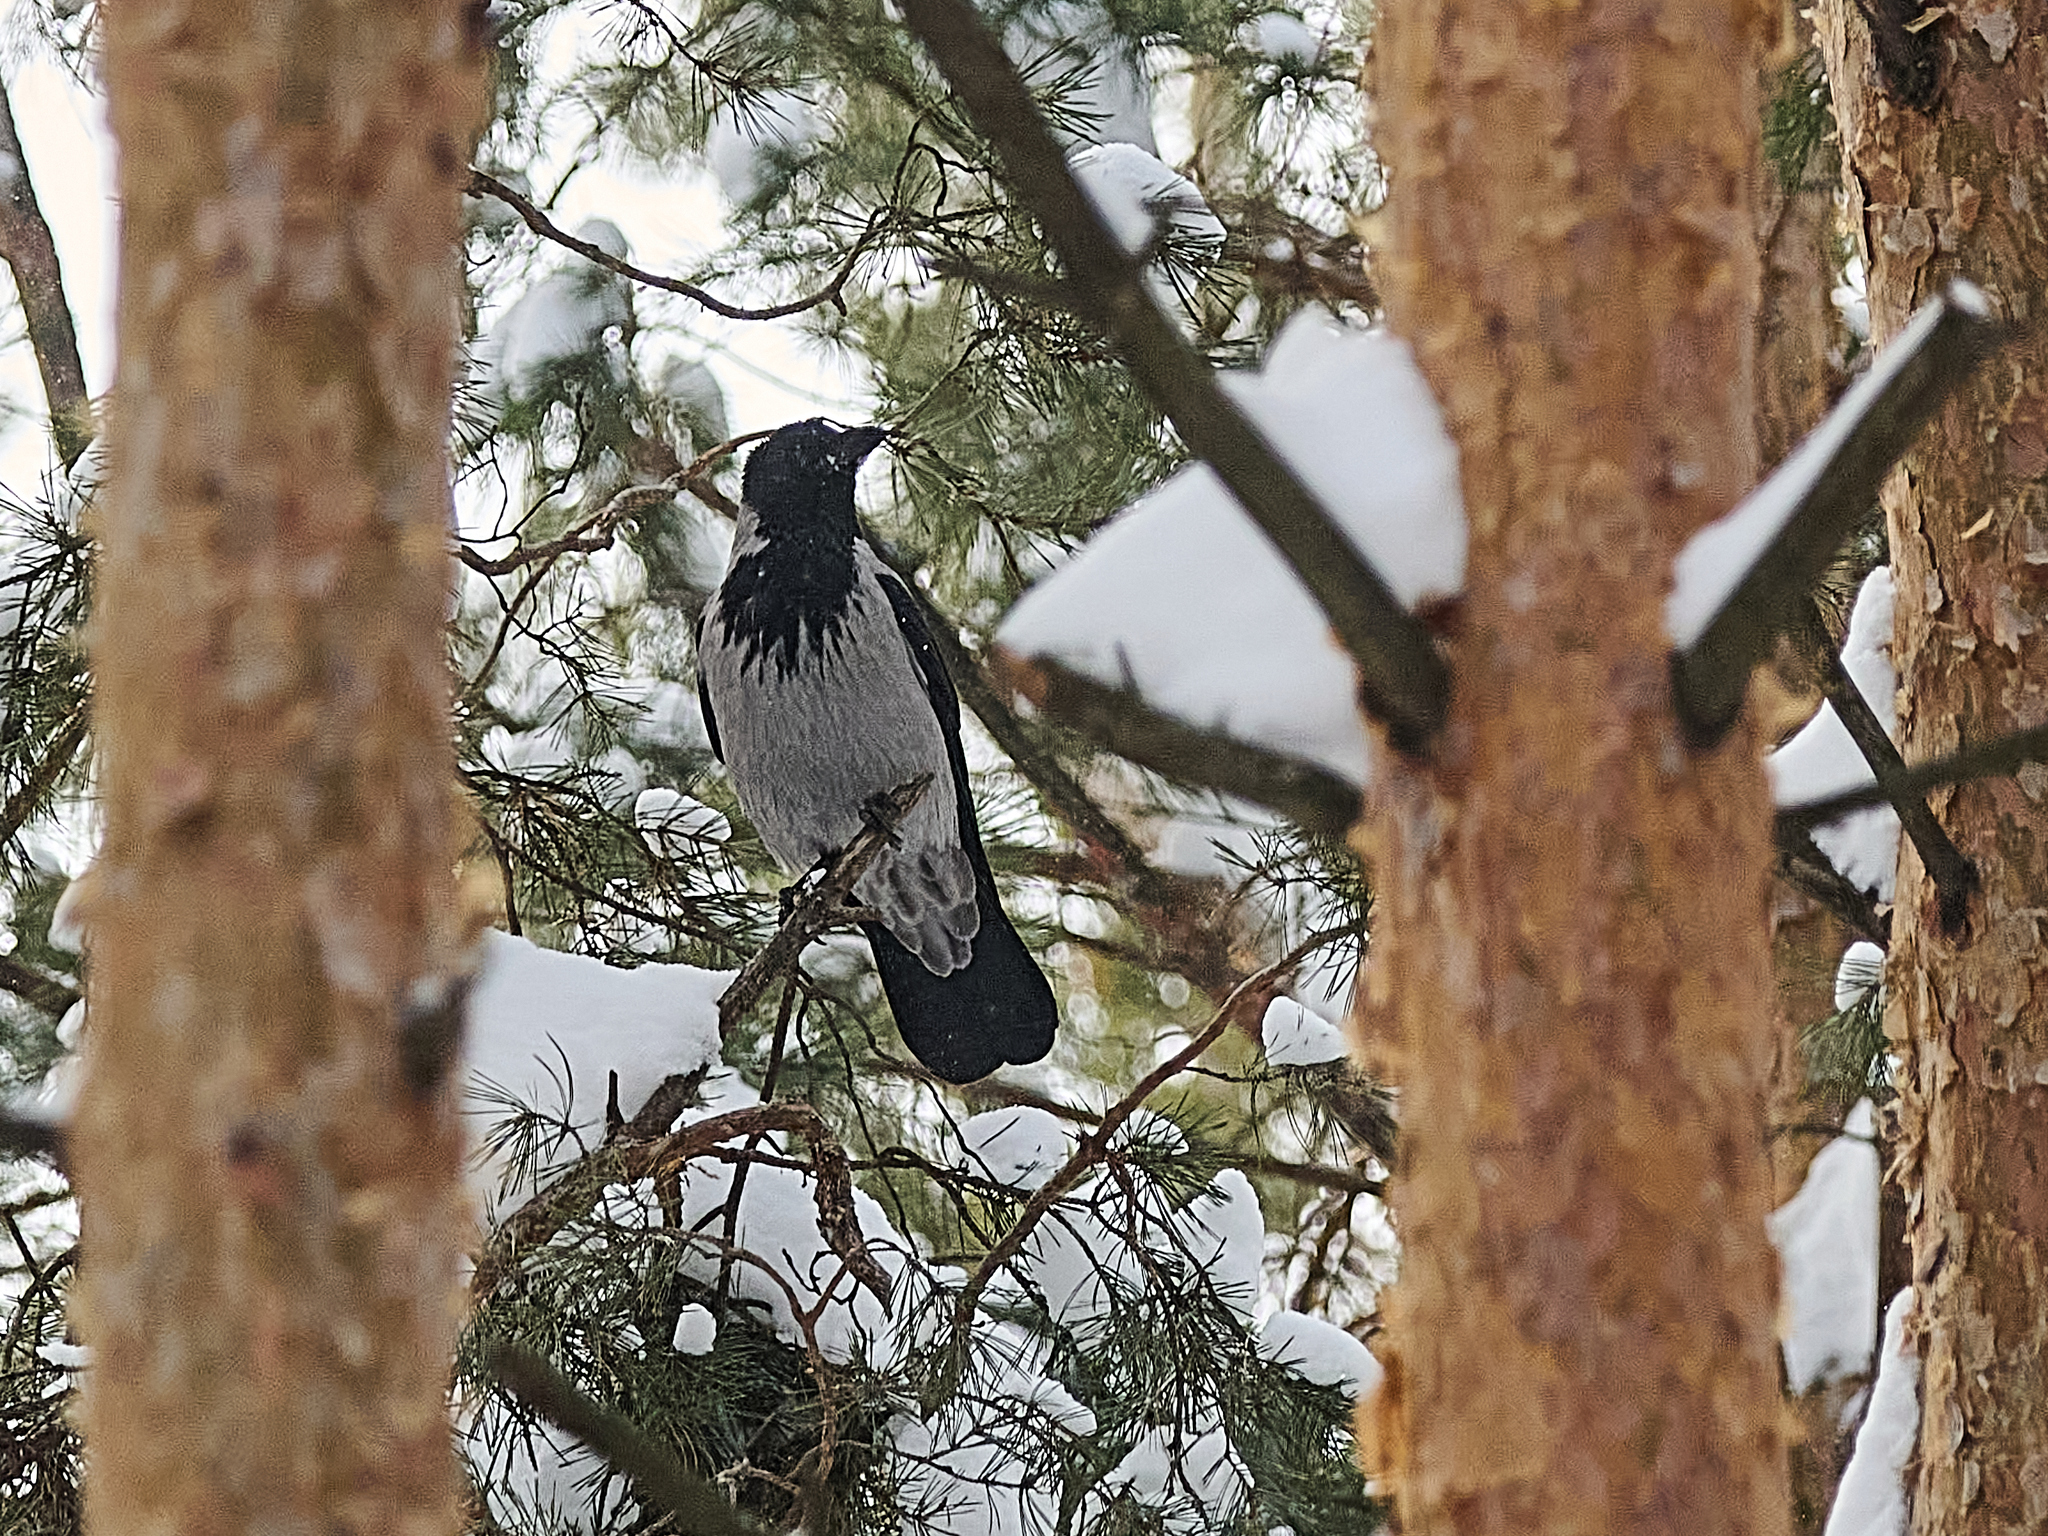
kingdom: Animalia
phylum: Chordata
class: Aves
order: Passeriformes
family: Corvidae
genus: Corvus
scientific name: Corvus cornix
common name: Hooded crow
